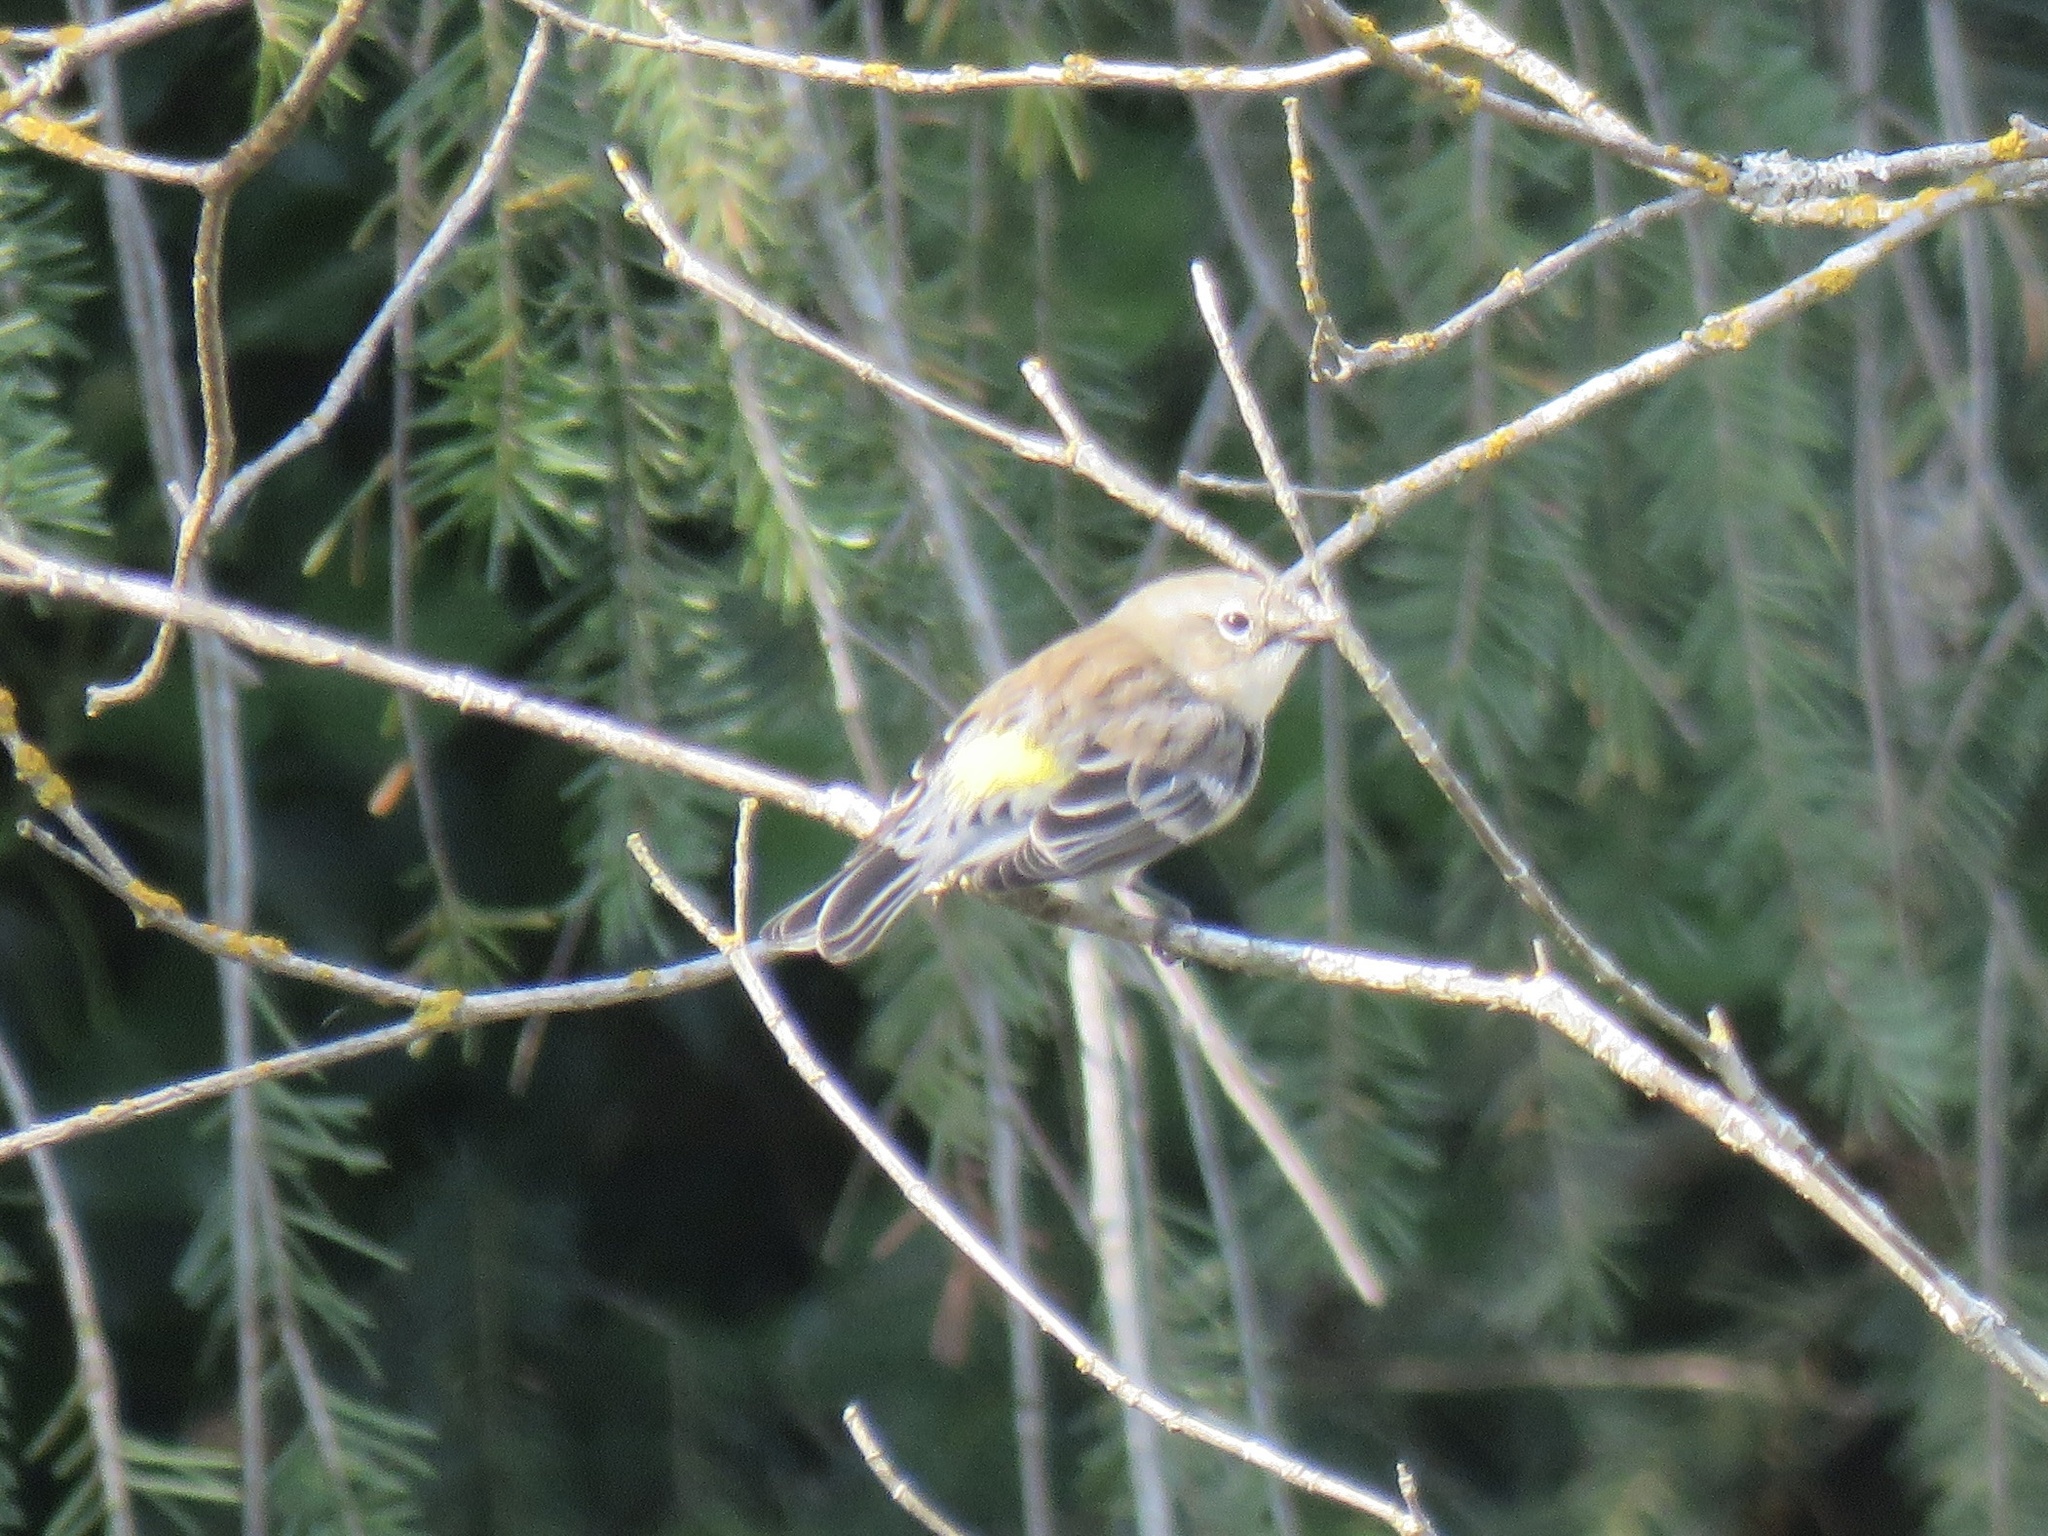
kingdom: Animalia
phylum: Chordata
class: Aves
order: Passeriformes
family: Parulidae
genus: Setophaga
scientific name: Setophaga coronata
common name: Myrtle warbler
